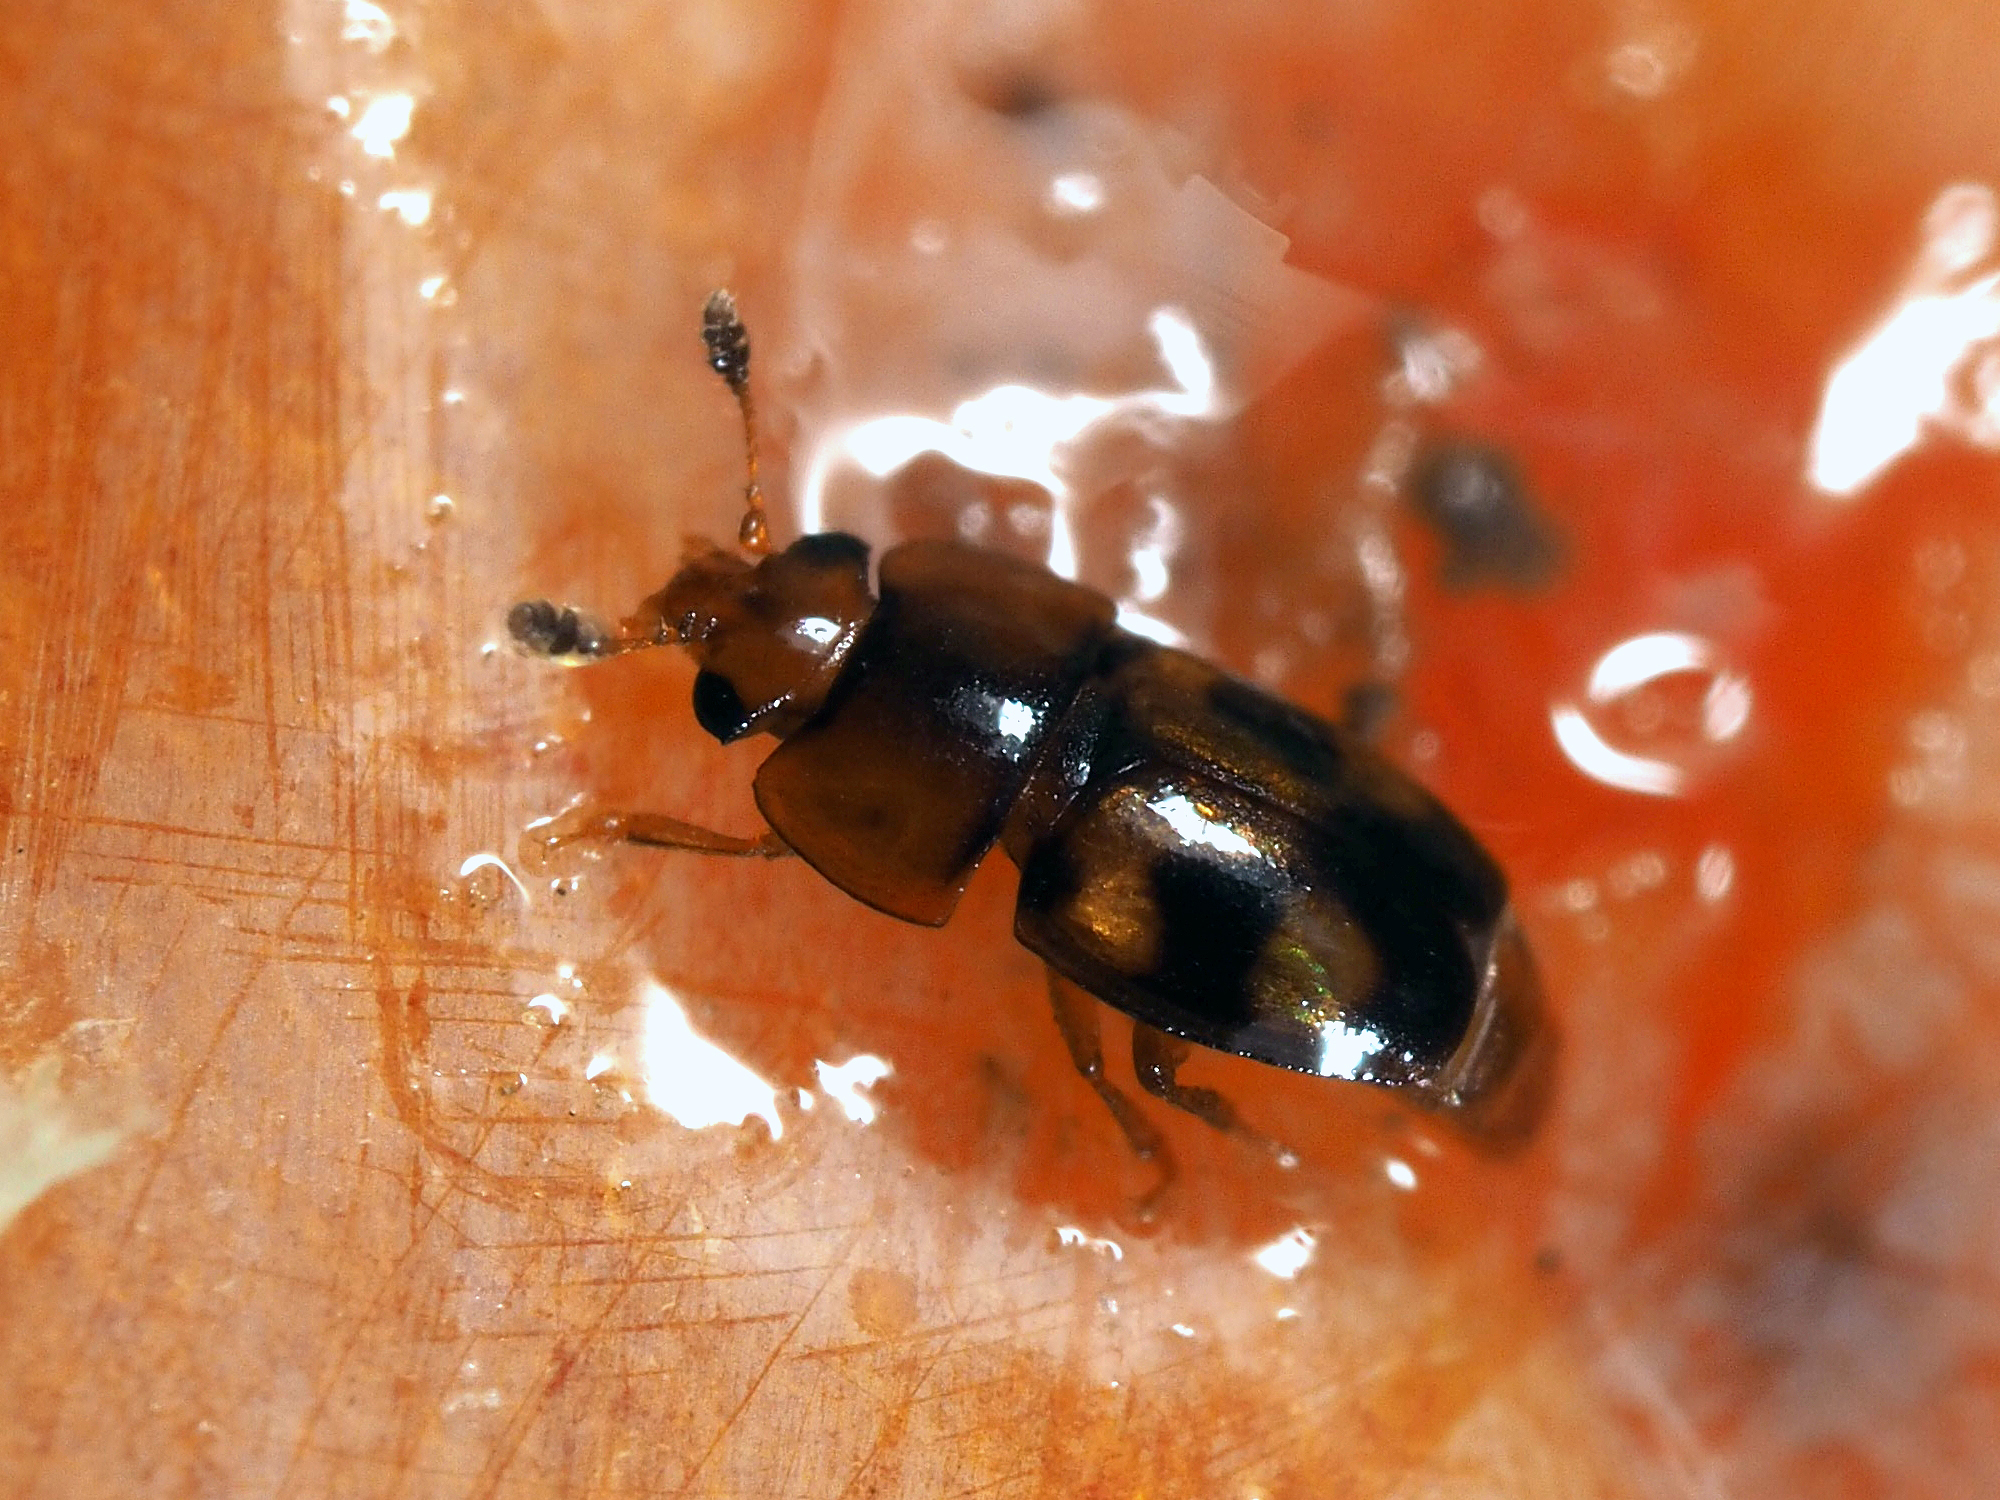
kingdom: Animalia
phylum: Arthropoda
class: Insecta
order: Coleoptera
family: Nitidulidae
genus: Epuraea
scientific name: Epuraea ocularis
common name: Sap beetle
